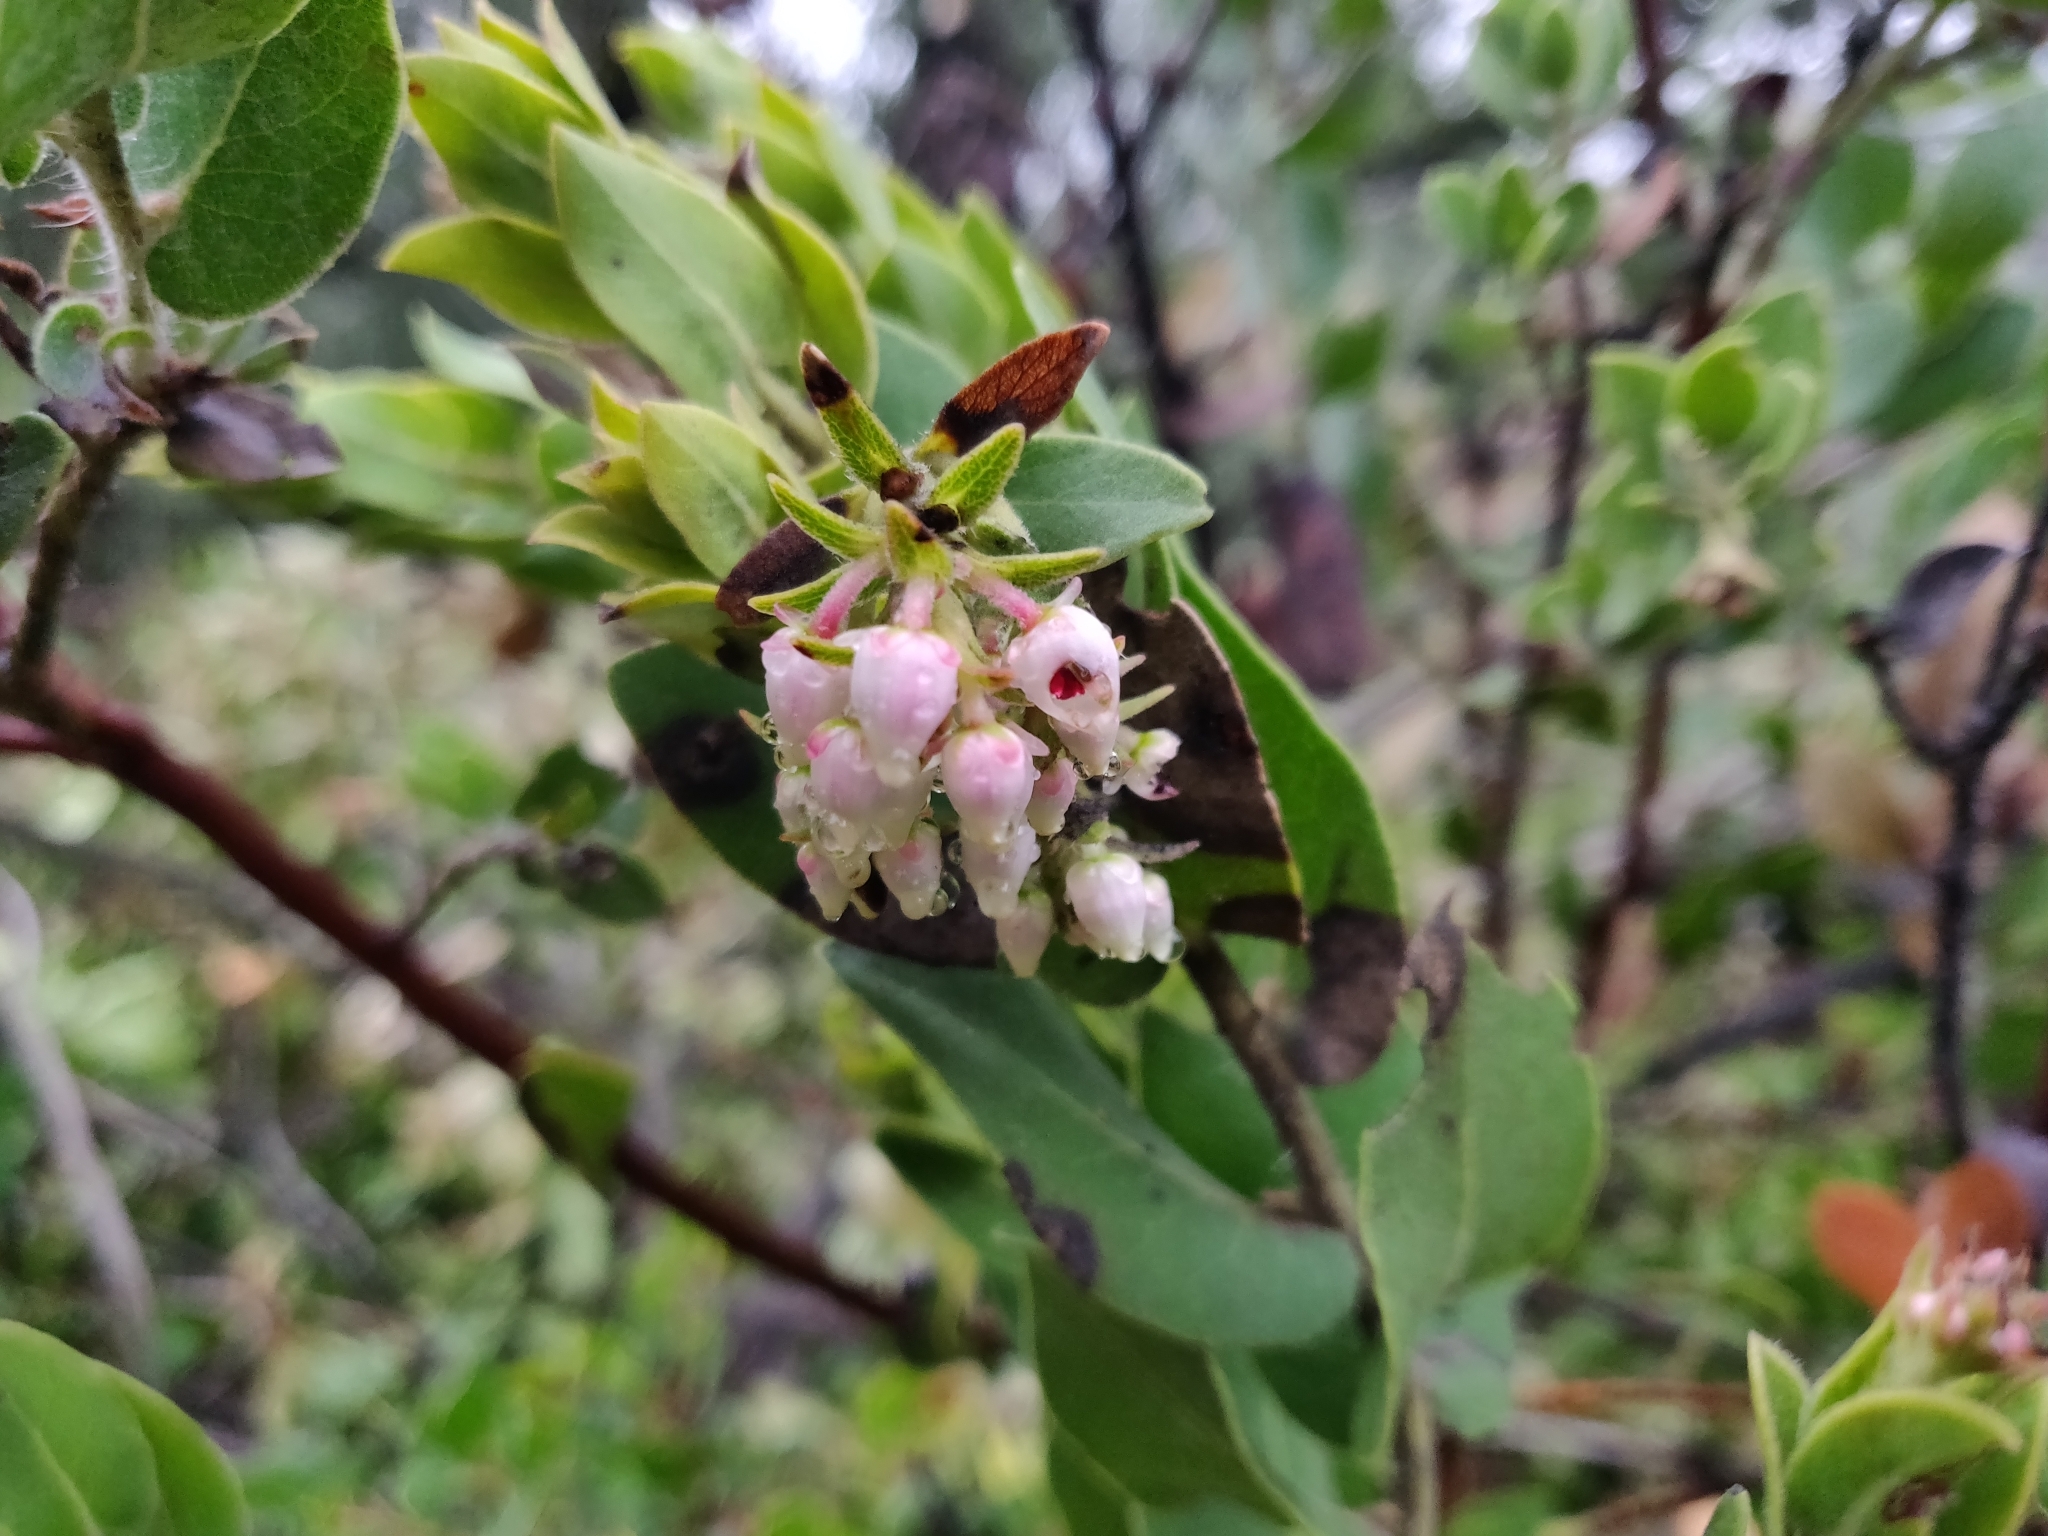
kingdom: Plantae
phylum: Tracheophyta
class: Magnoliopsida
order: Ericales
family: Ericaceae
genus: Arctostaphylos
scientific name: Arctostaphylos auriculata
